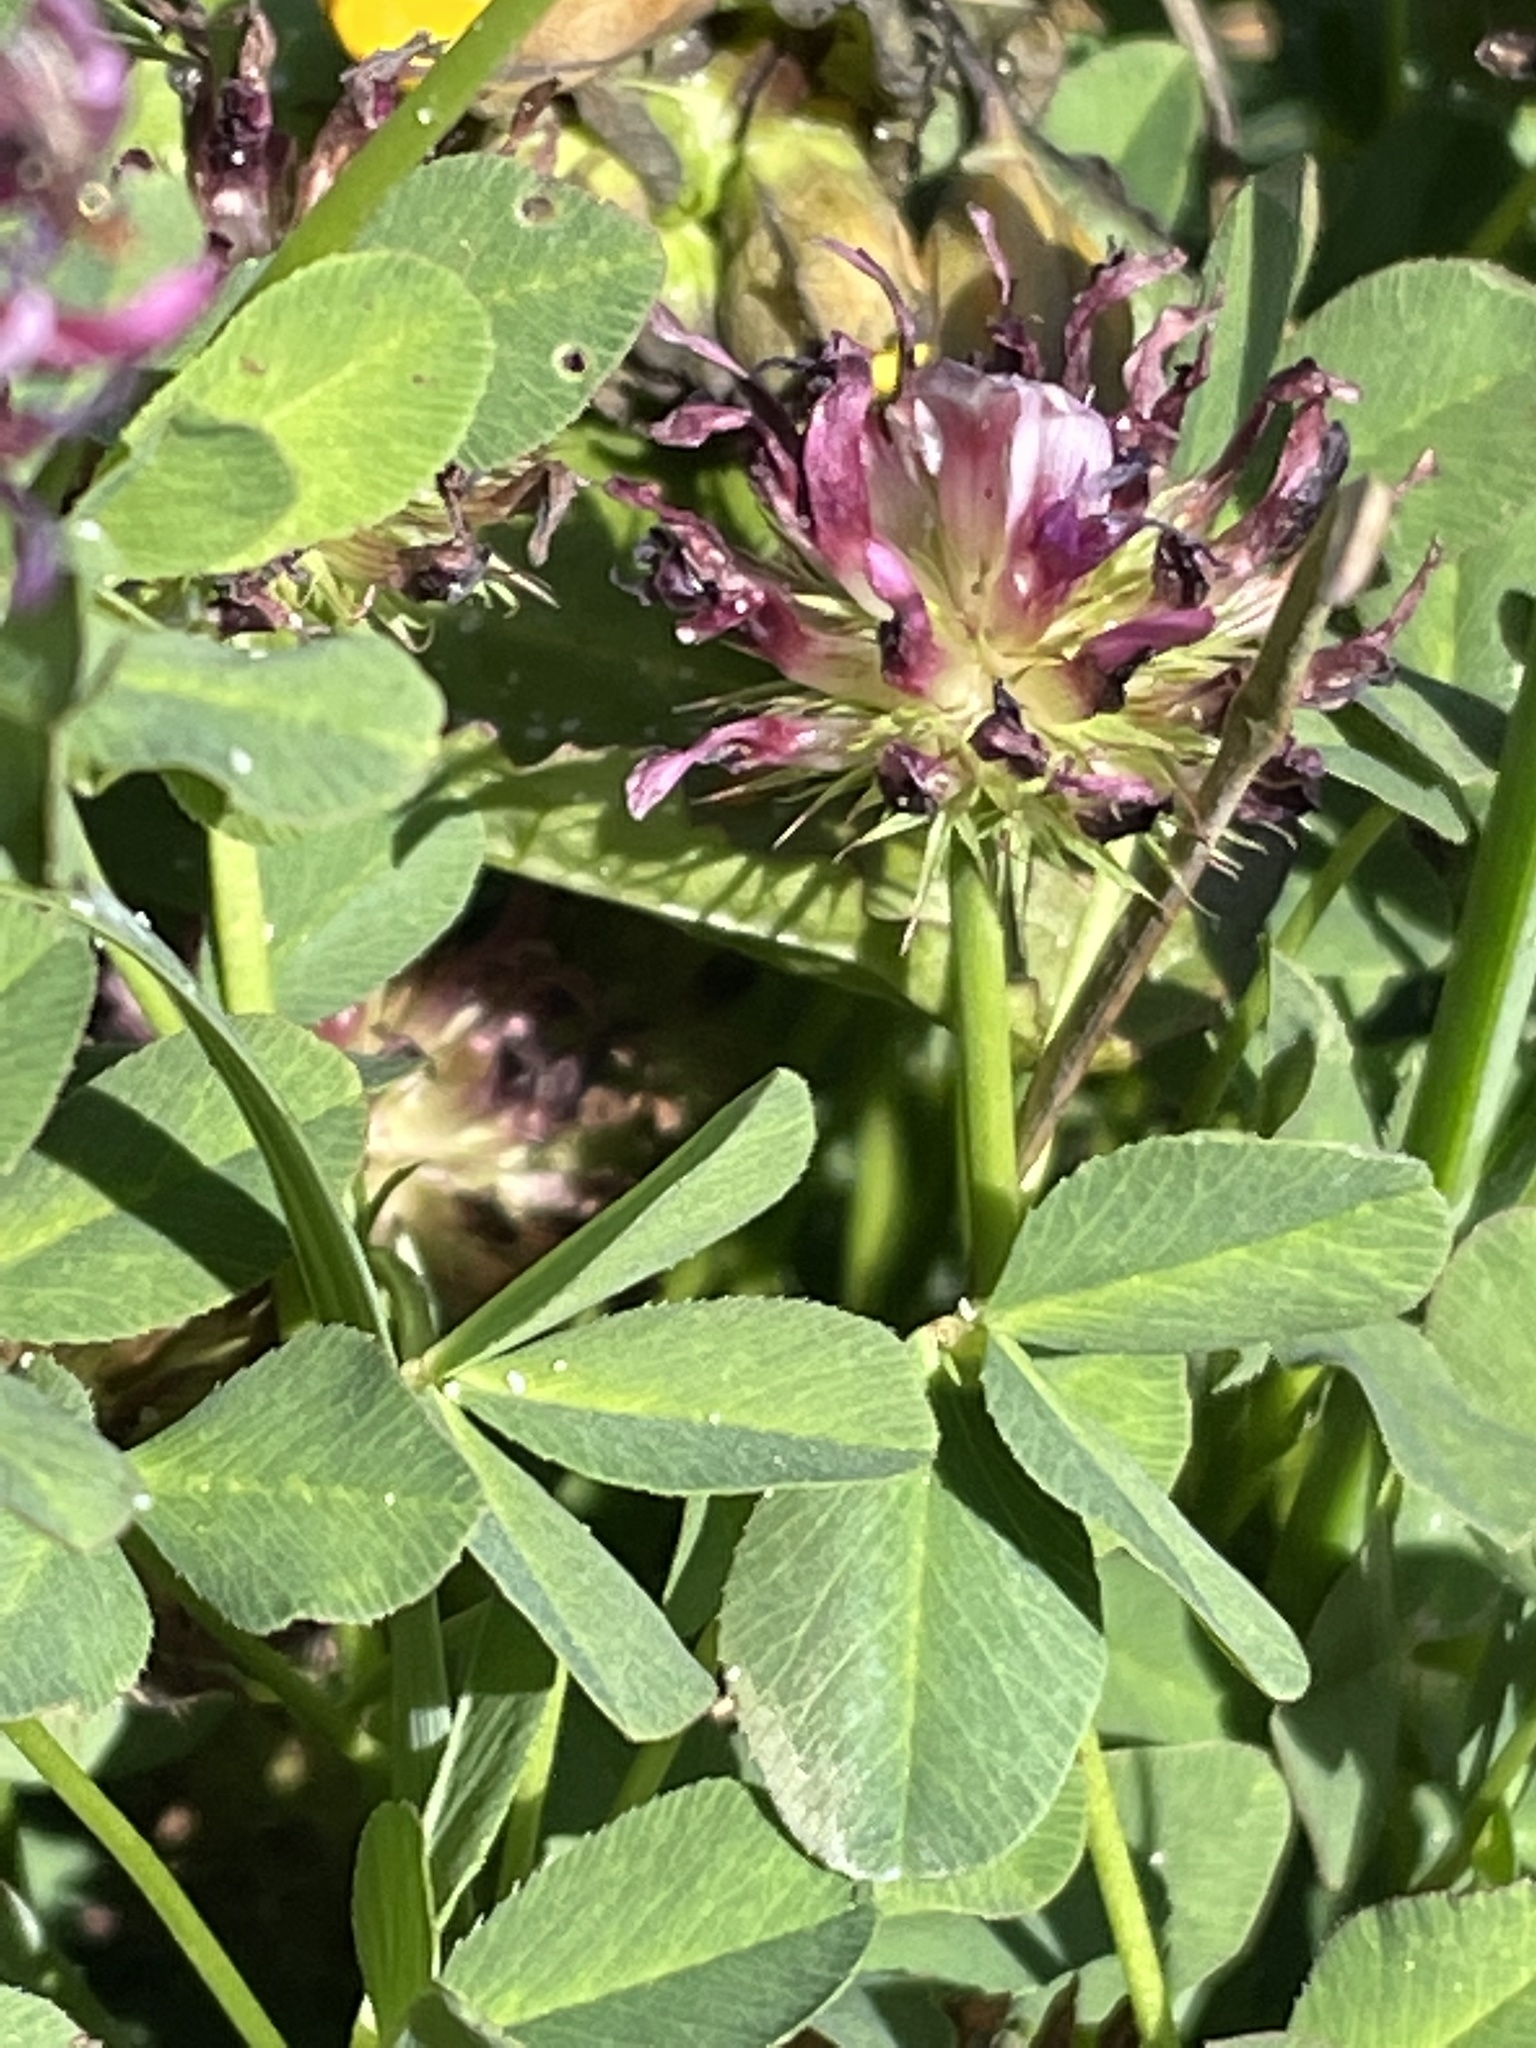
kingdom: Plantae
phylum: Tracheophyta
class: Magnoliopsida
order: Fabales
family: Fabaceae
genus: Trifolium
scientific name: Trifolium wormskioldii
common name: Springbank clover
